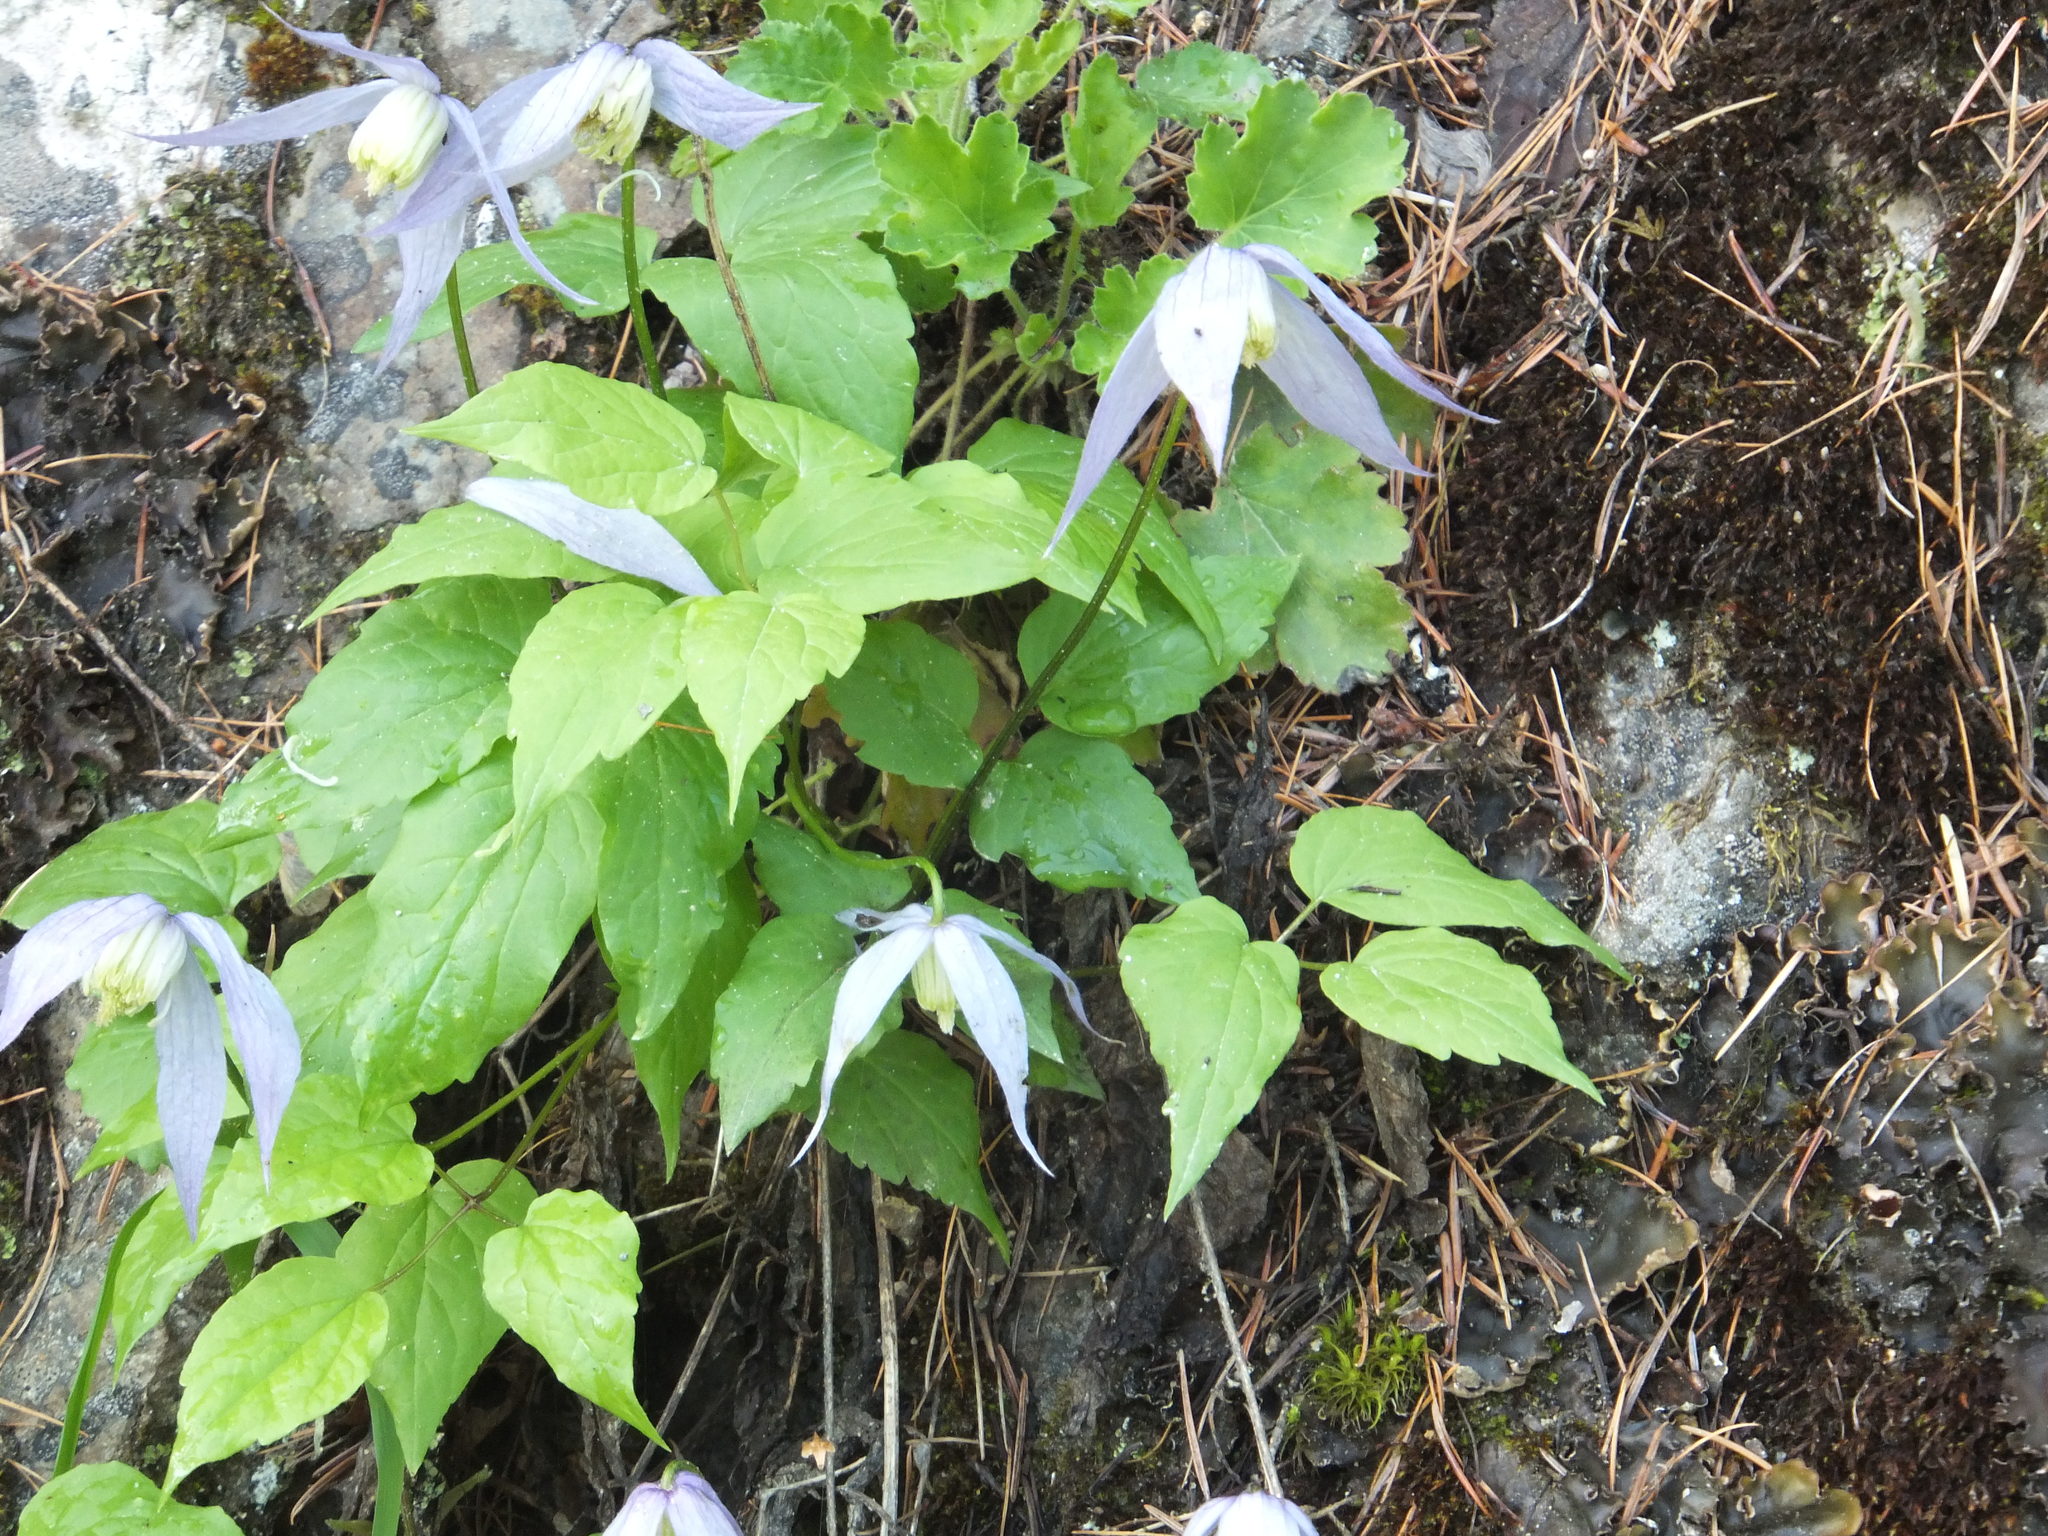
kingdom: Plantae
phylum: Tracheophyta
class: Magnoliopsida
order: Ranunculales
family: Ranunculaceae
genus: Clematis
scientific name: Clematis occidentalis
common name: Purple clematis
